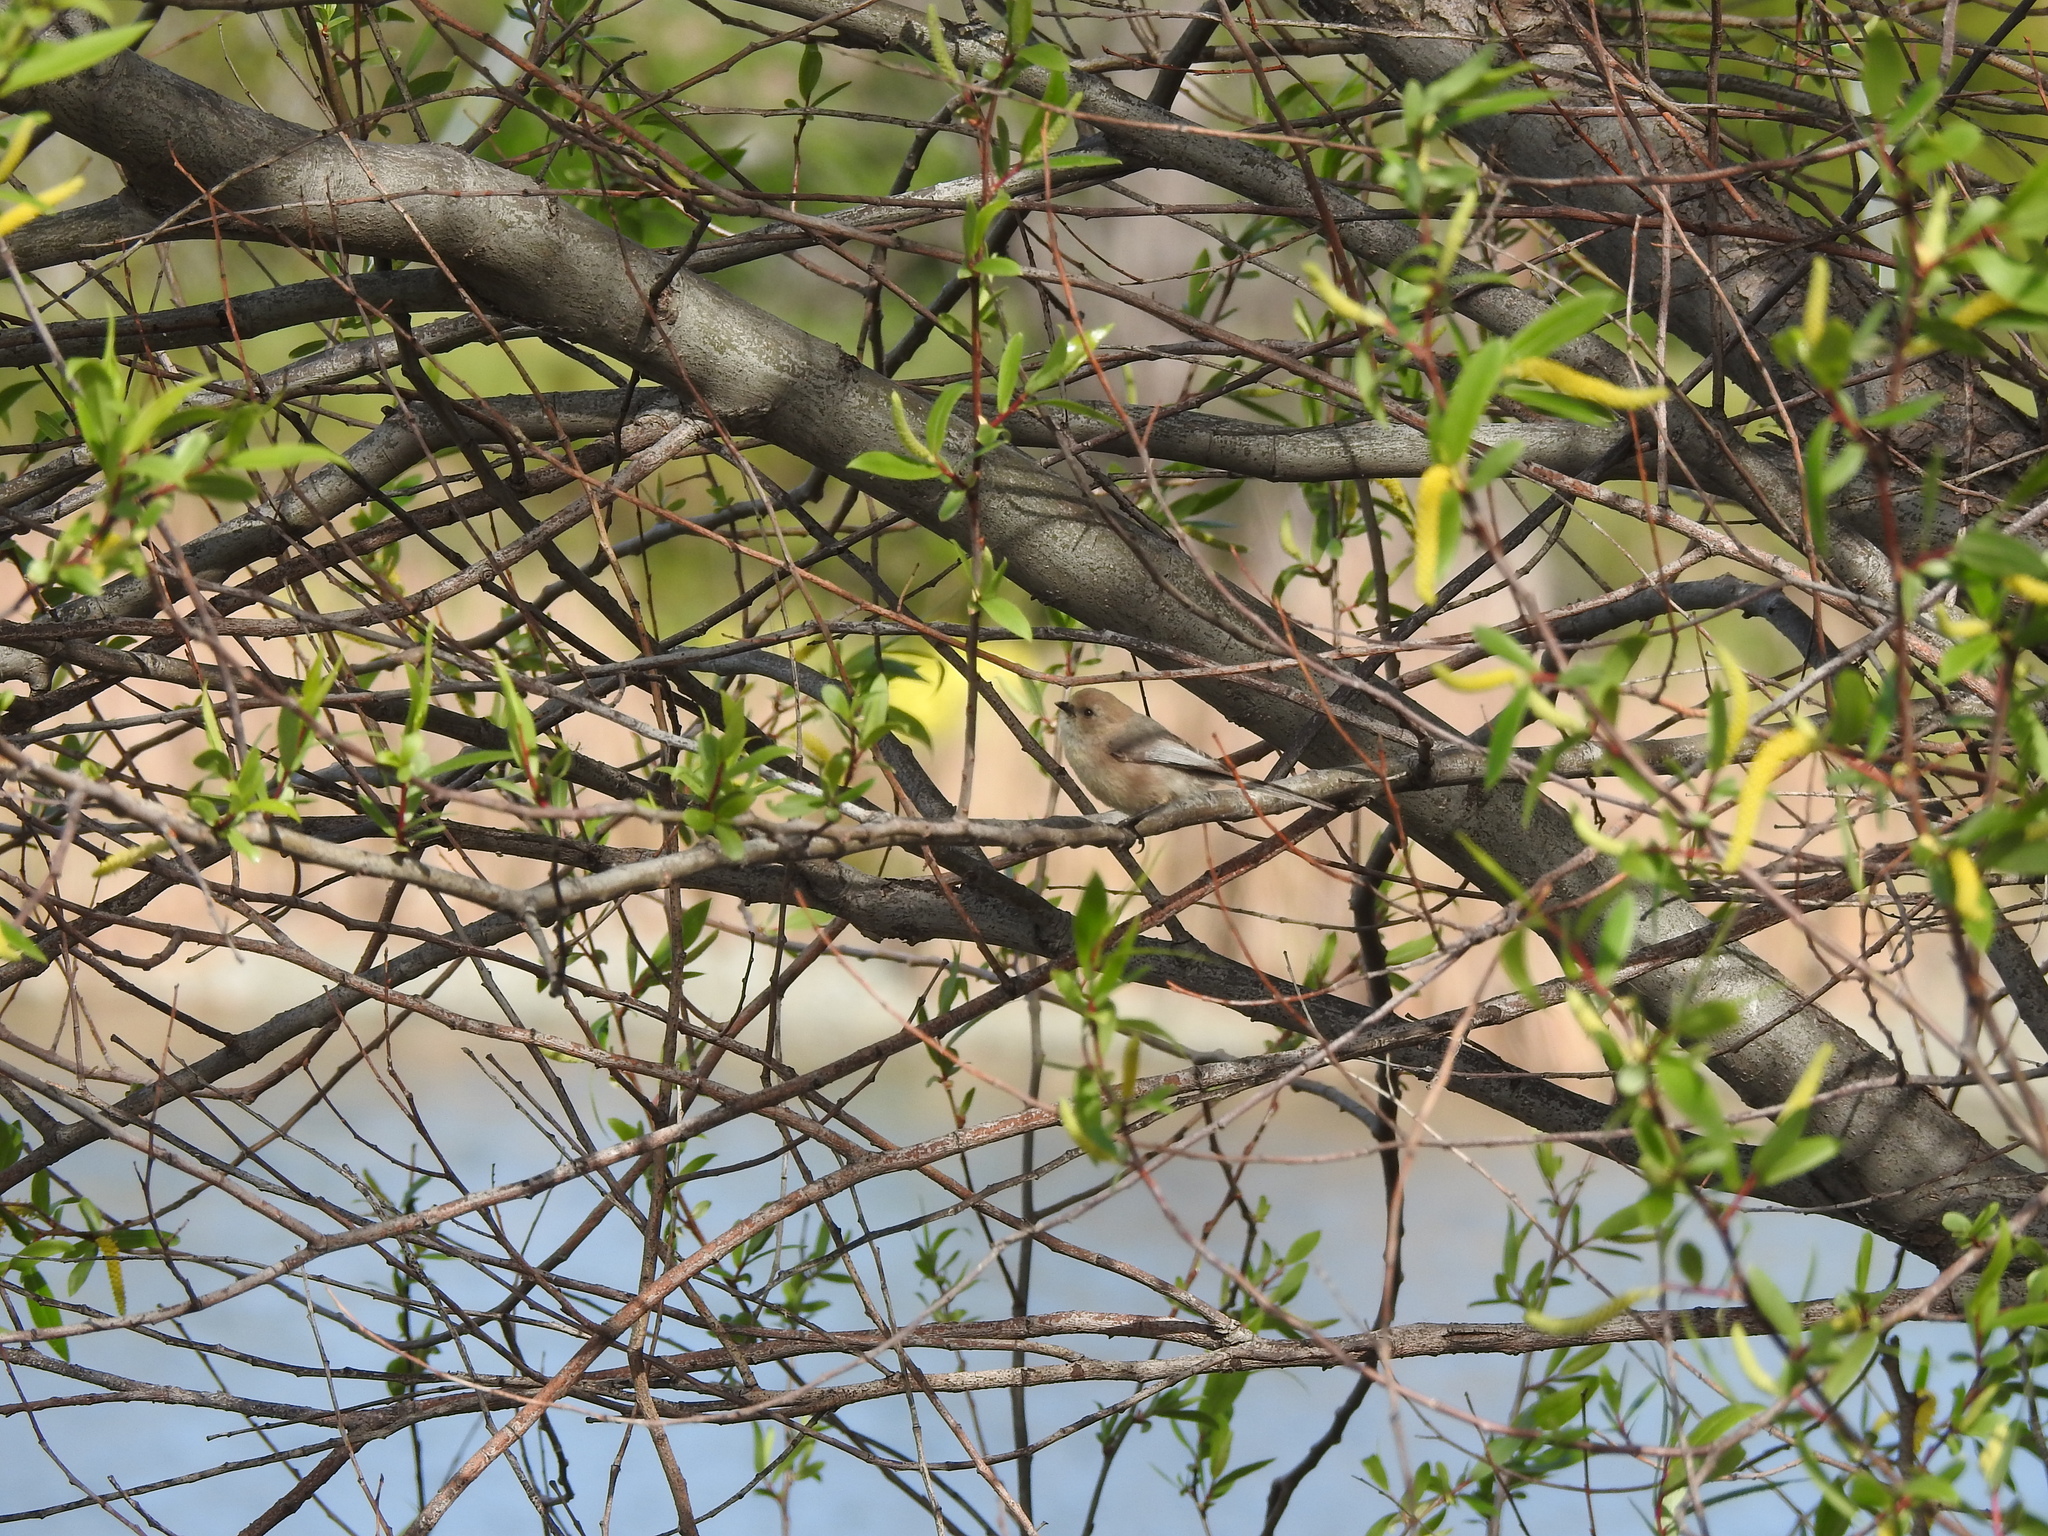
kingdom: Animalia
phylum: Chordata
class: Aves
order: Passeriformes
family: Aegithalidae
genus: Psaltriparus
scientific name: Psaltriparus minimus
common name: American bushtit
